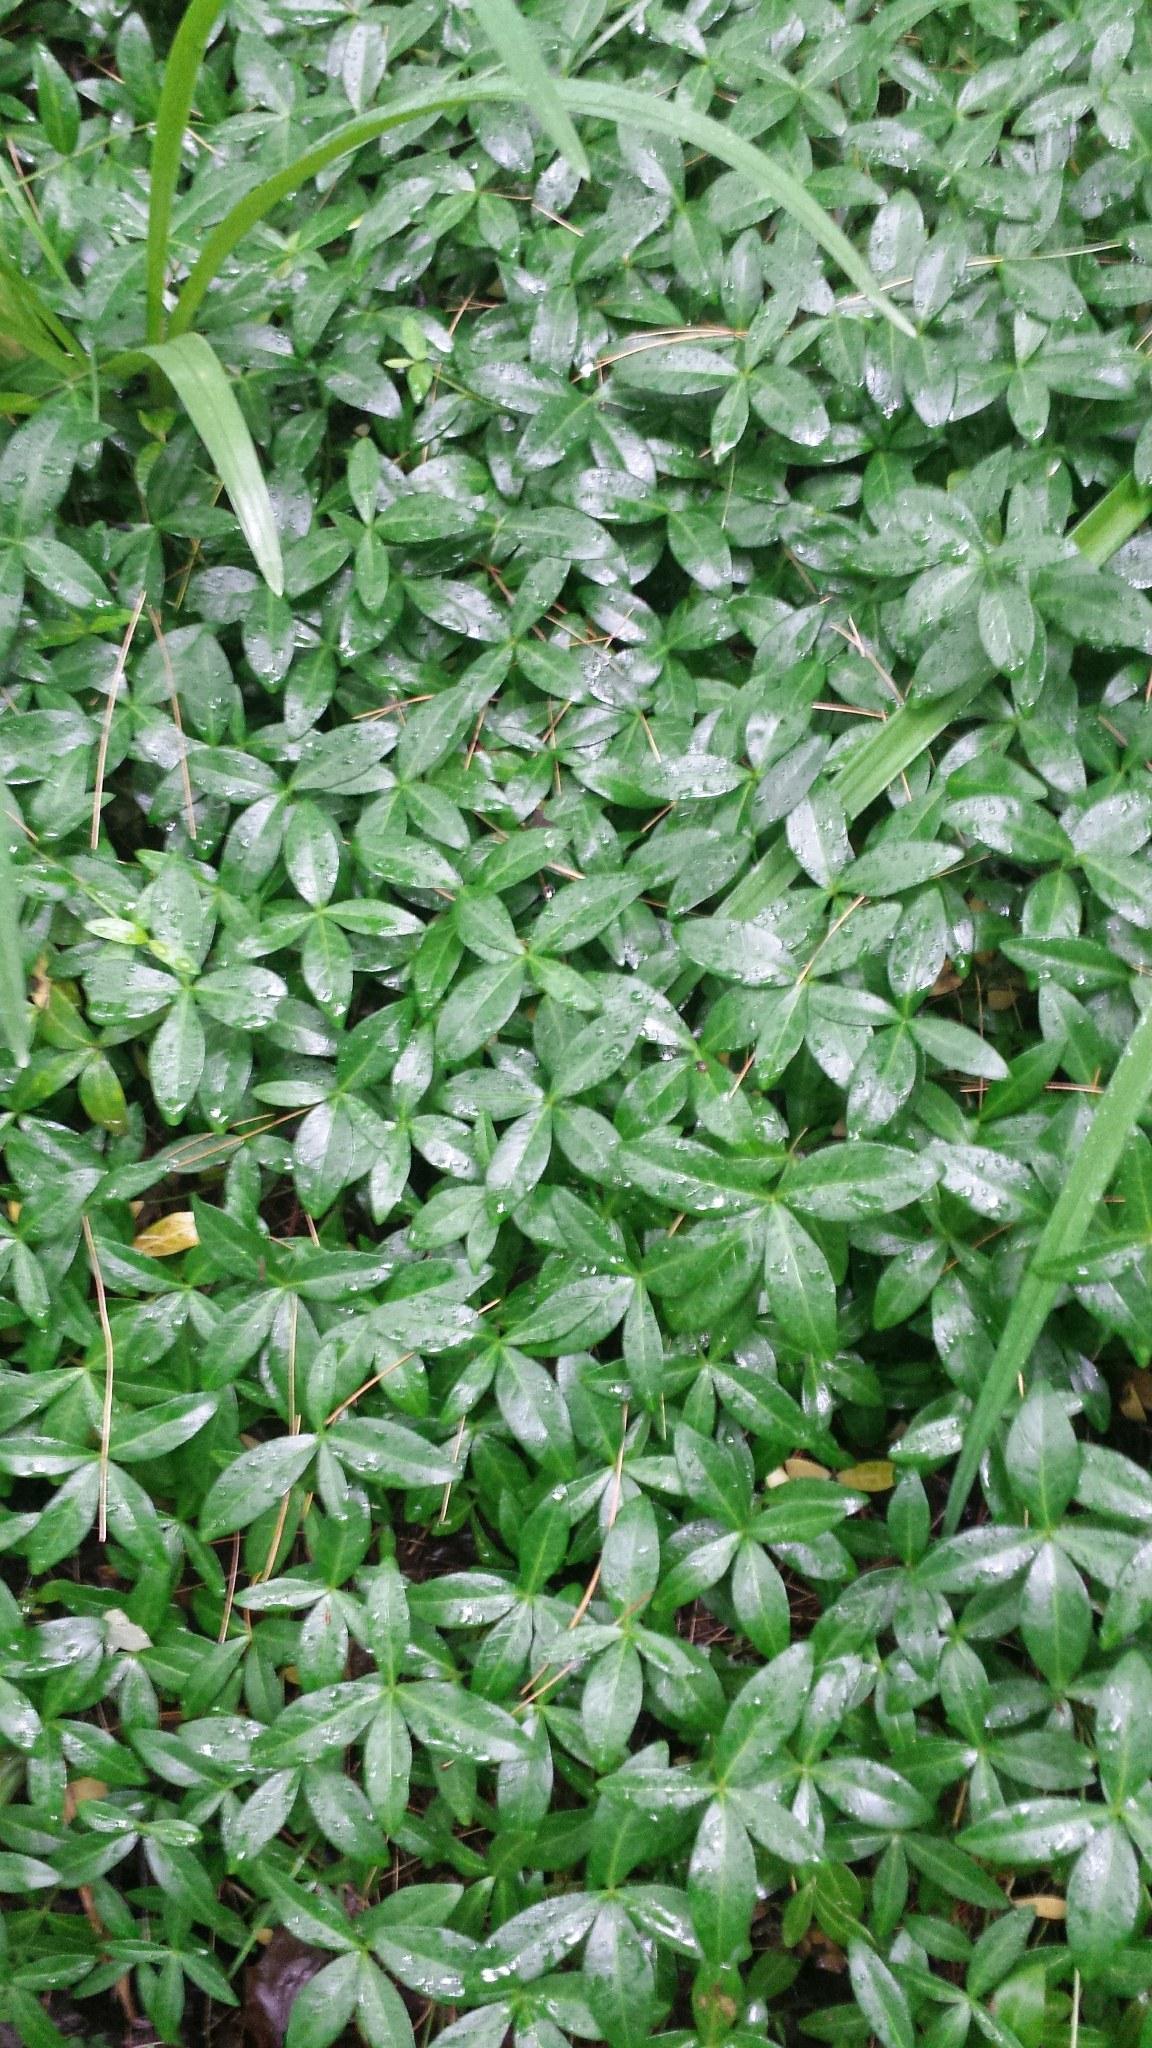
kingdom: Plantae
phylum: Tracheophyta
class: Magnoliopsida
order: Gentianales
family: Apocynaceae
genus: Vinca
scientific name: Vinca minor
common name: Lesser periwinkle
